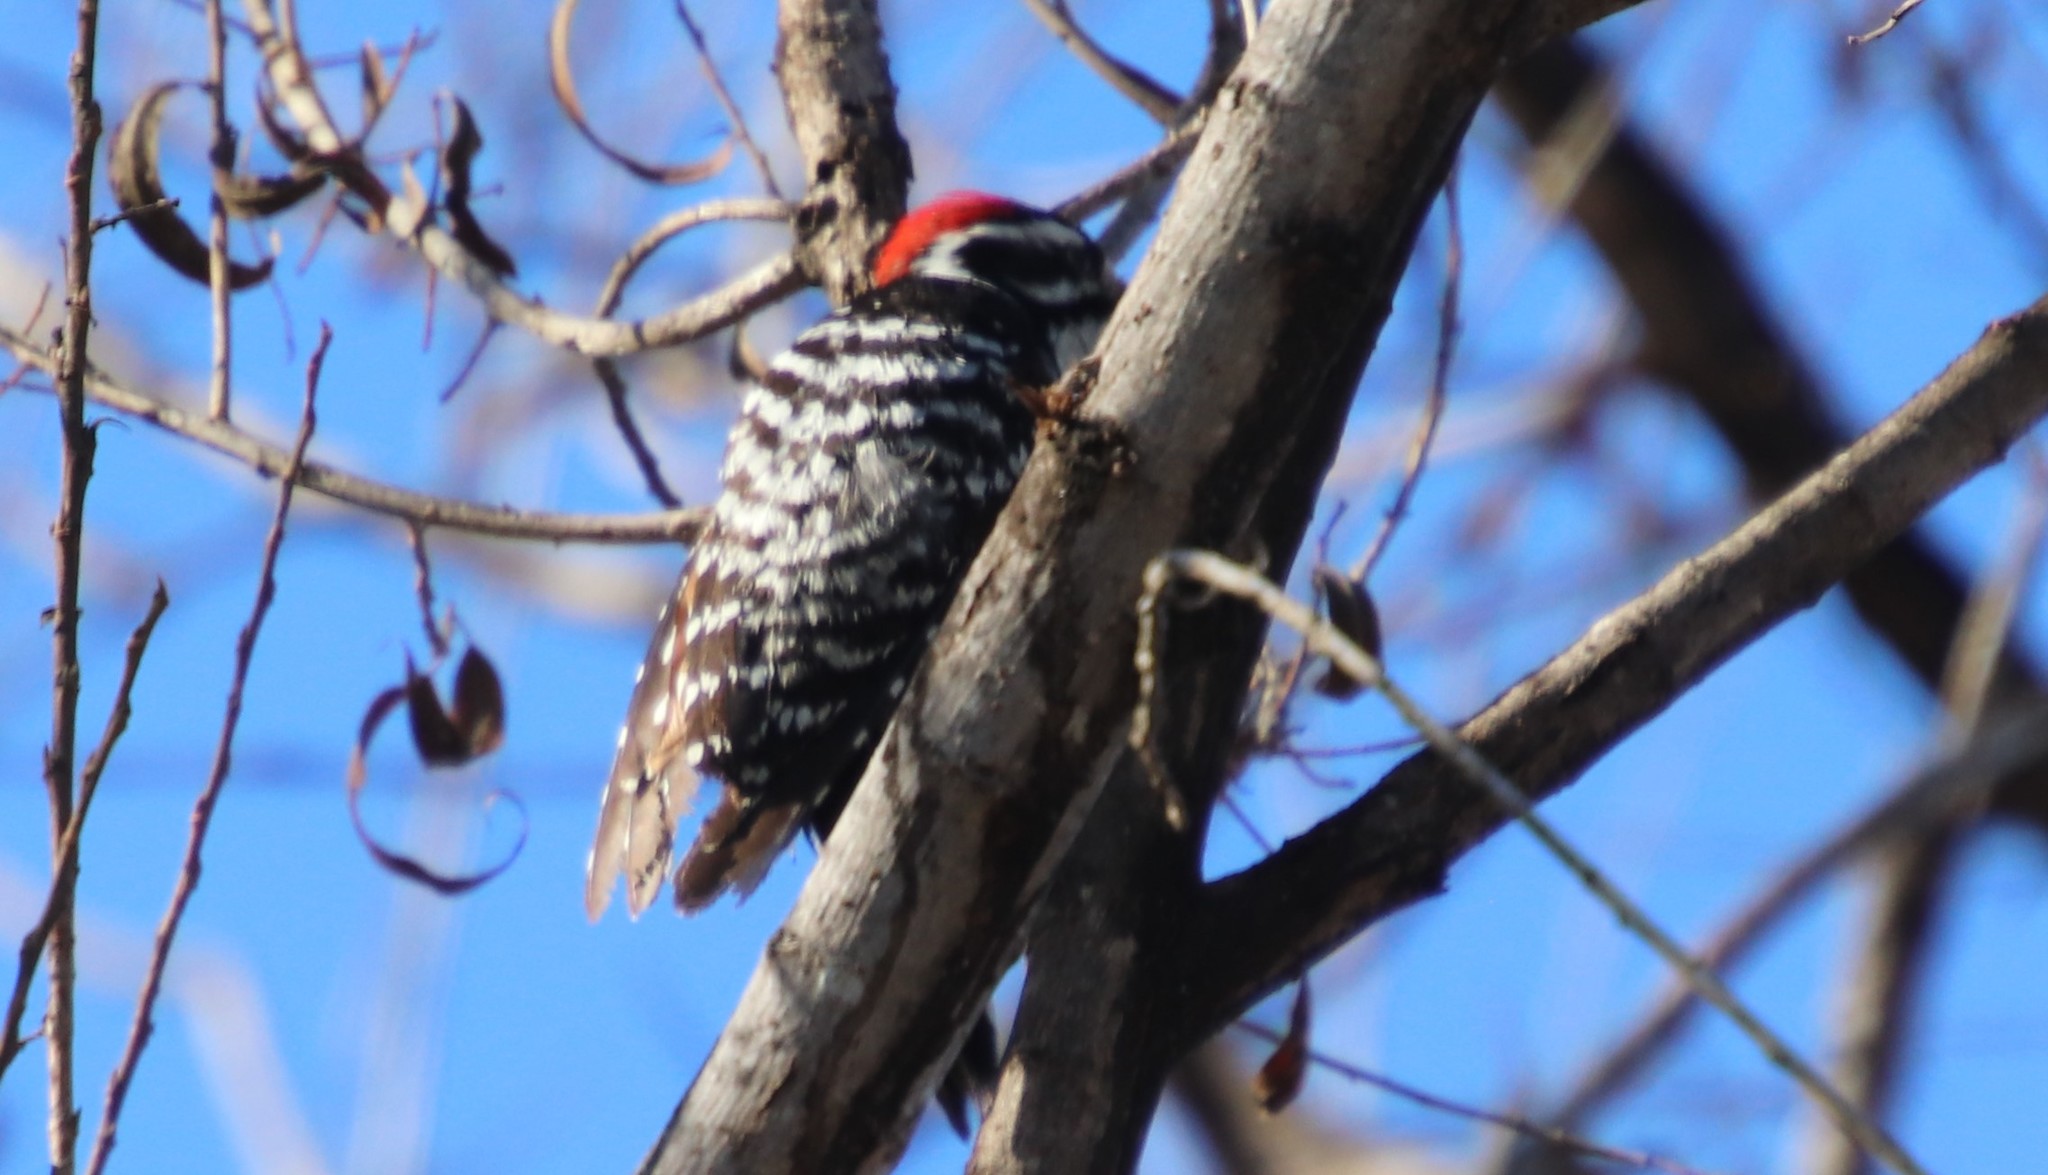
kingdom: Animalia
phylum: Chordata
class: Aves
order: Piciformes
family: Picidae
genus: Dryobates
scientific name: Dryobates nuttallii
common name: Nuttall's woodpecker
